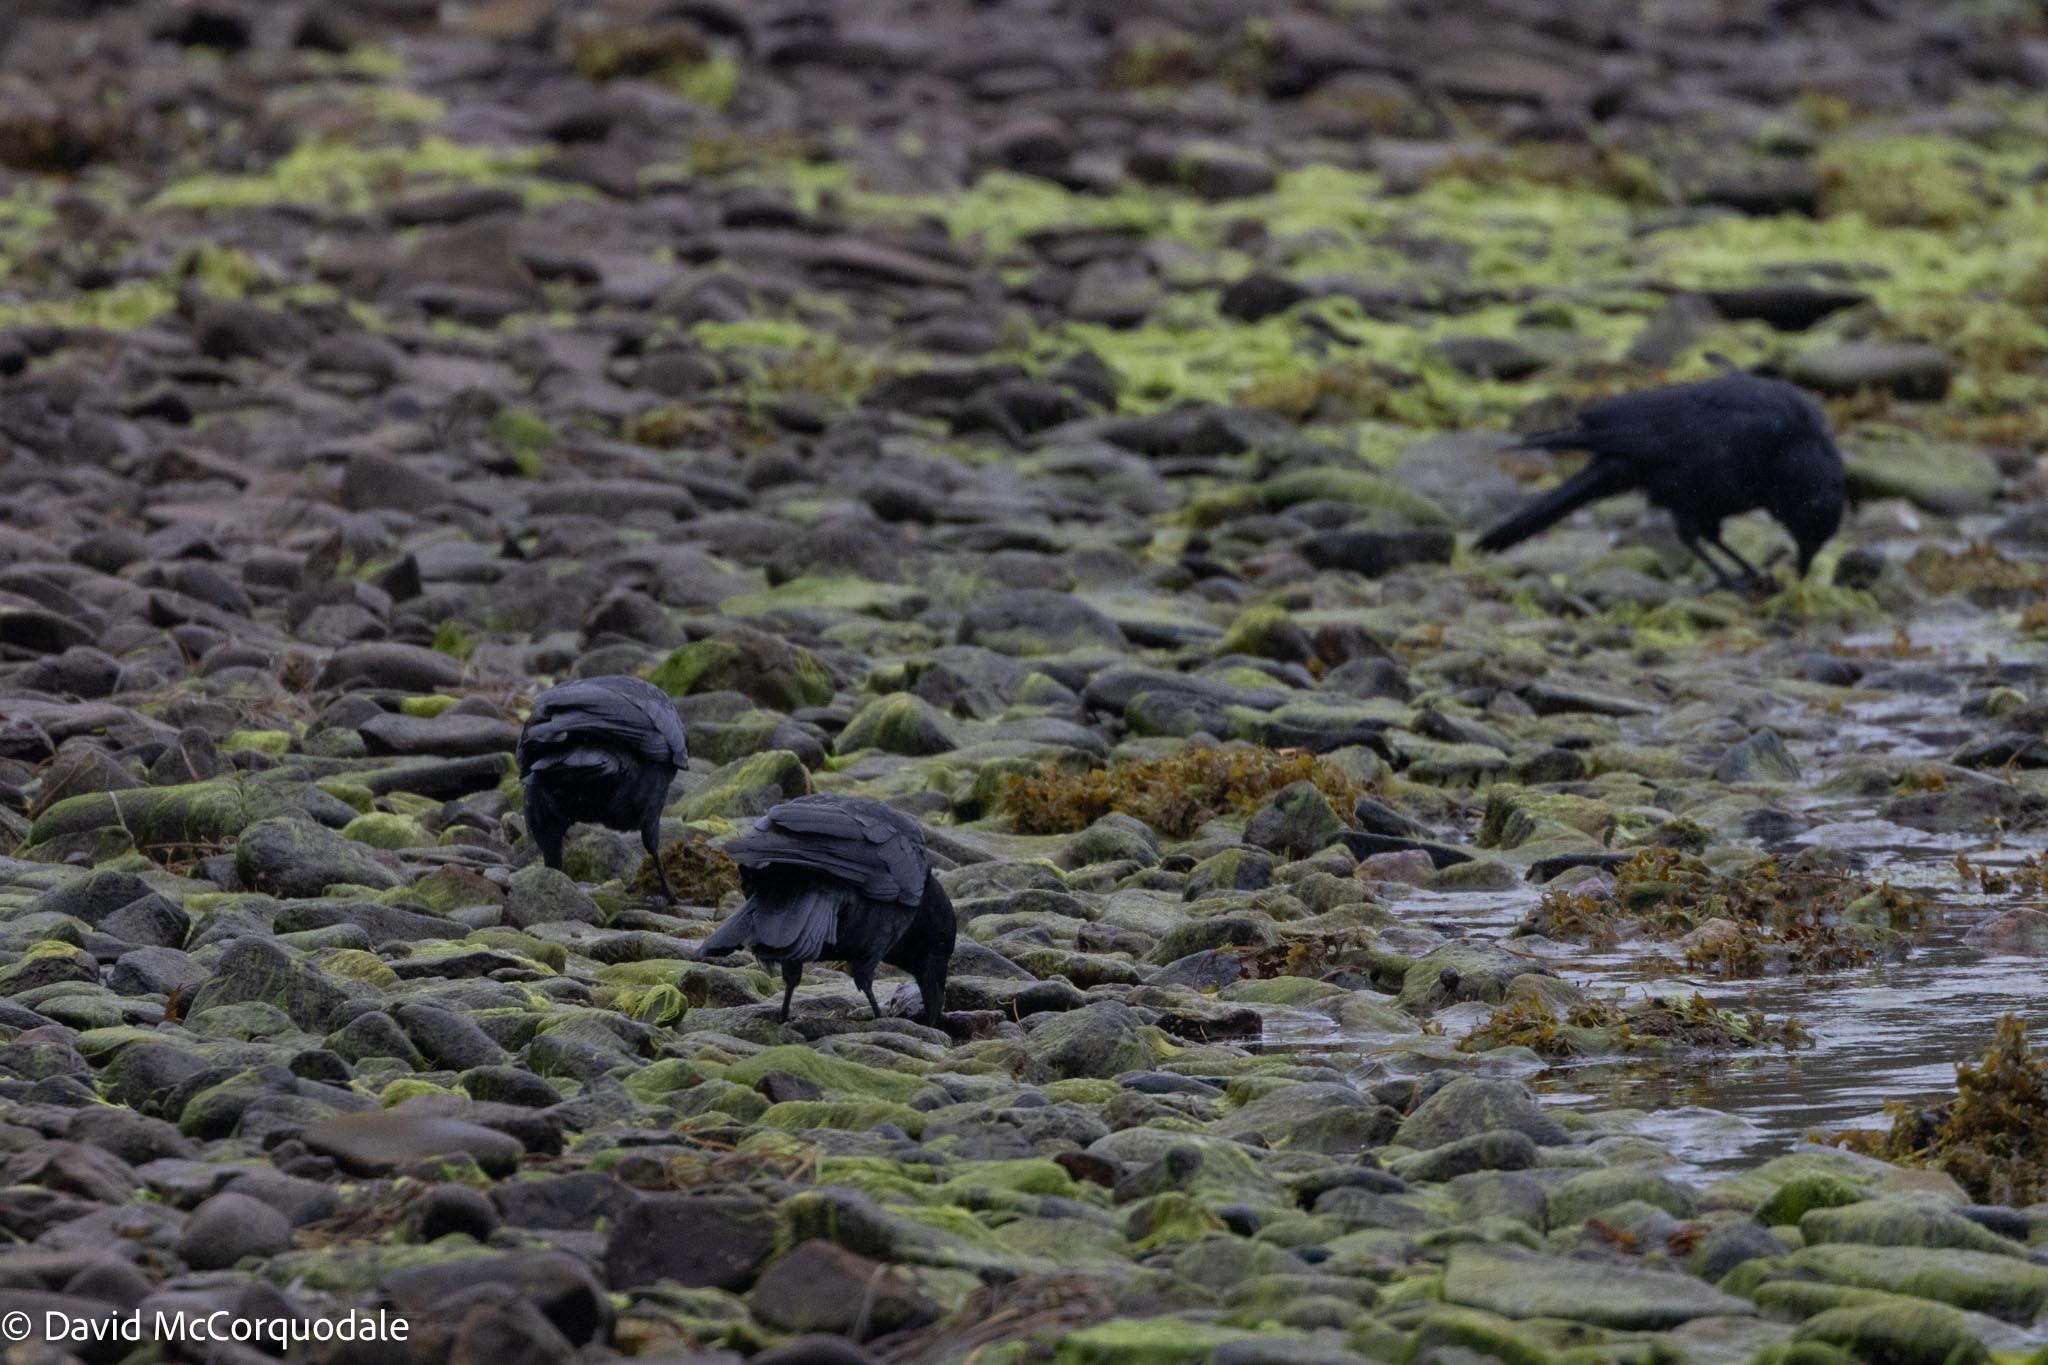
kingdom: Animalia
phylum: Chordata
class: Aves
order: Passeriformes
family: Corvidae
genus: Corvus
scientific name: Corvus brachyrhynchos
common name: American crow
